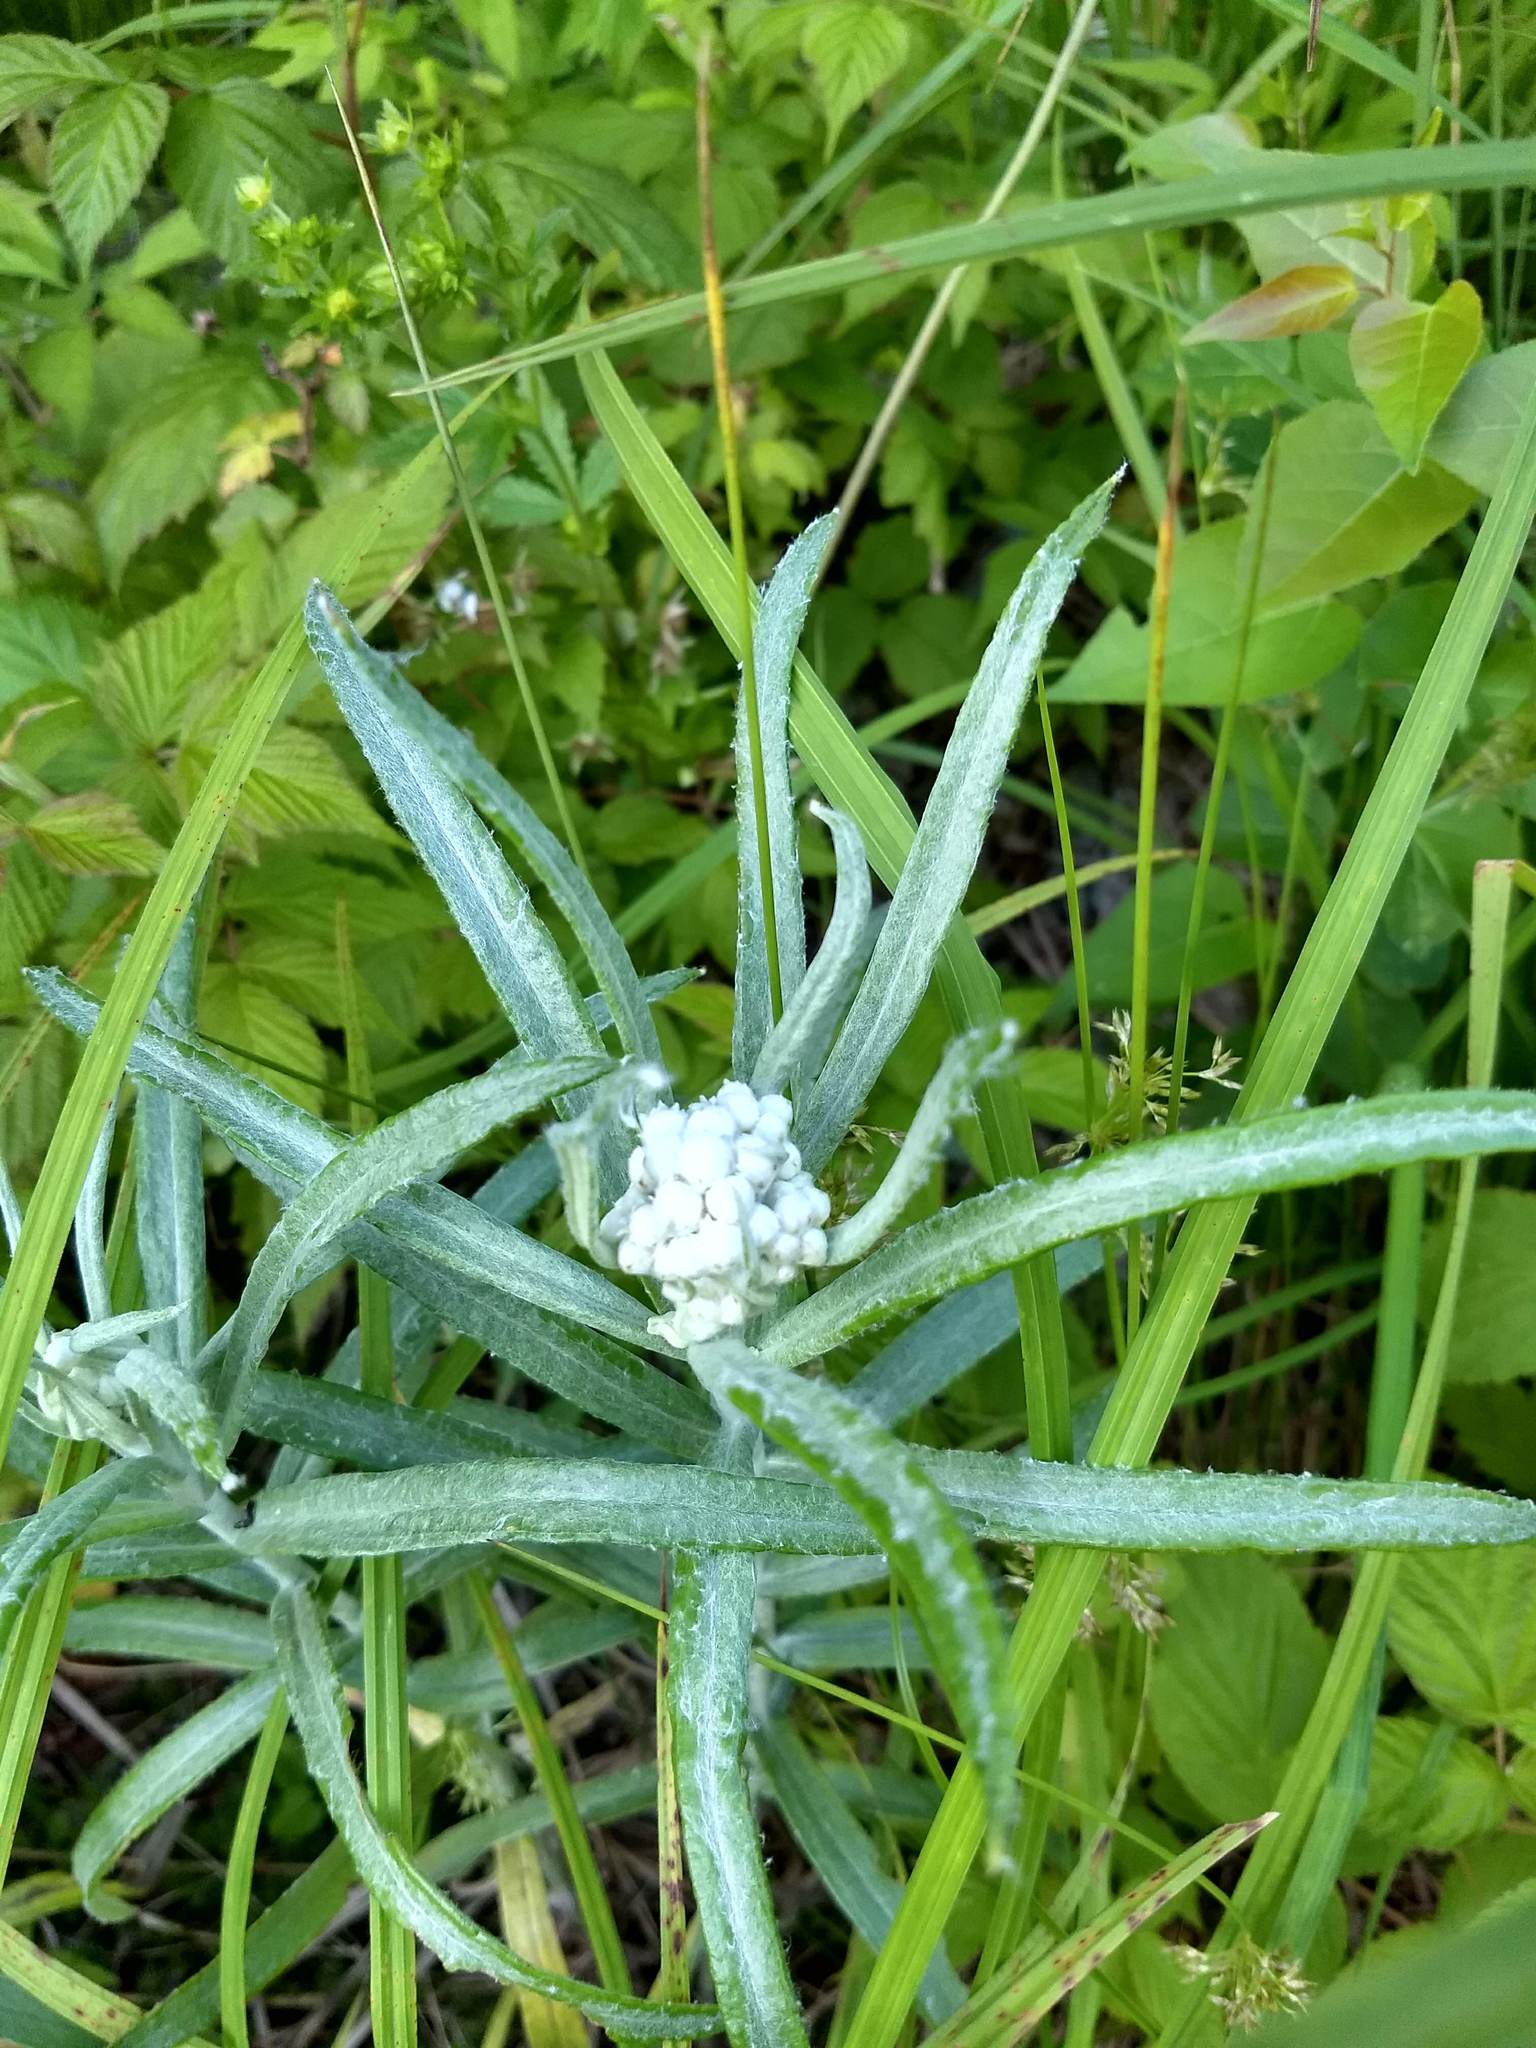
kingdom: Plantae
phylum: Tracheophyta
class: Magnoliopsida
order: Asterales
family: Asteraceae
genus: Anaphalis
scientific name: Anaphalis margaritacea
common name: Pearly everlasting
